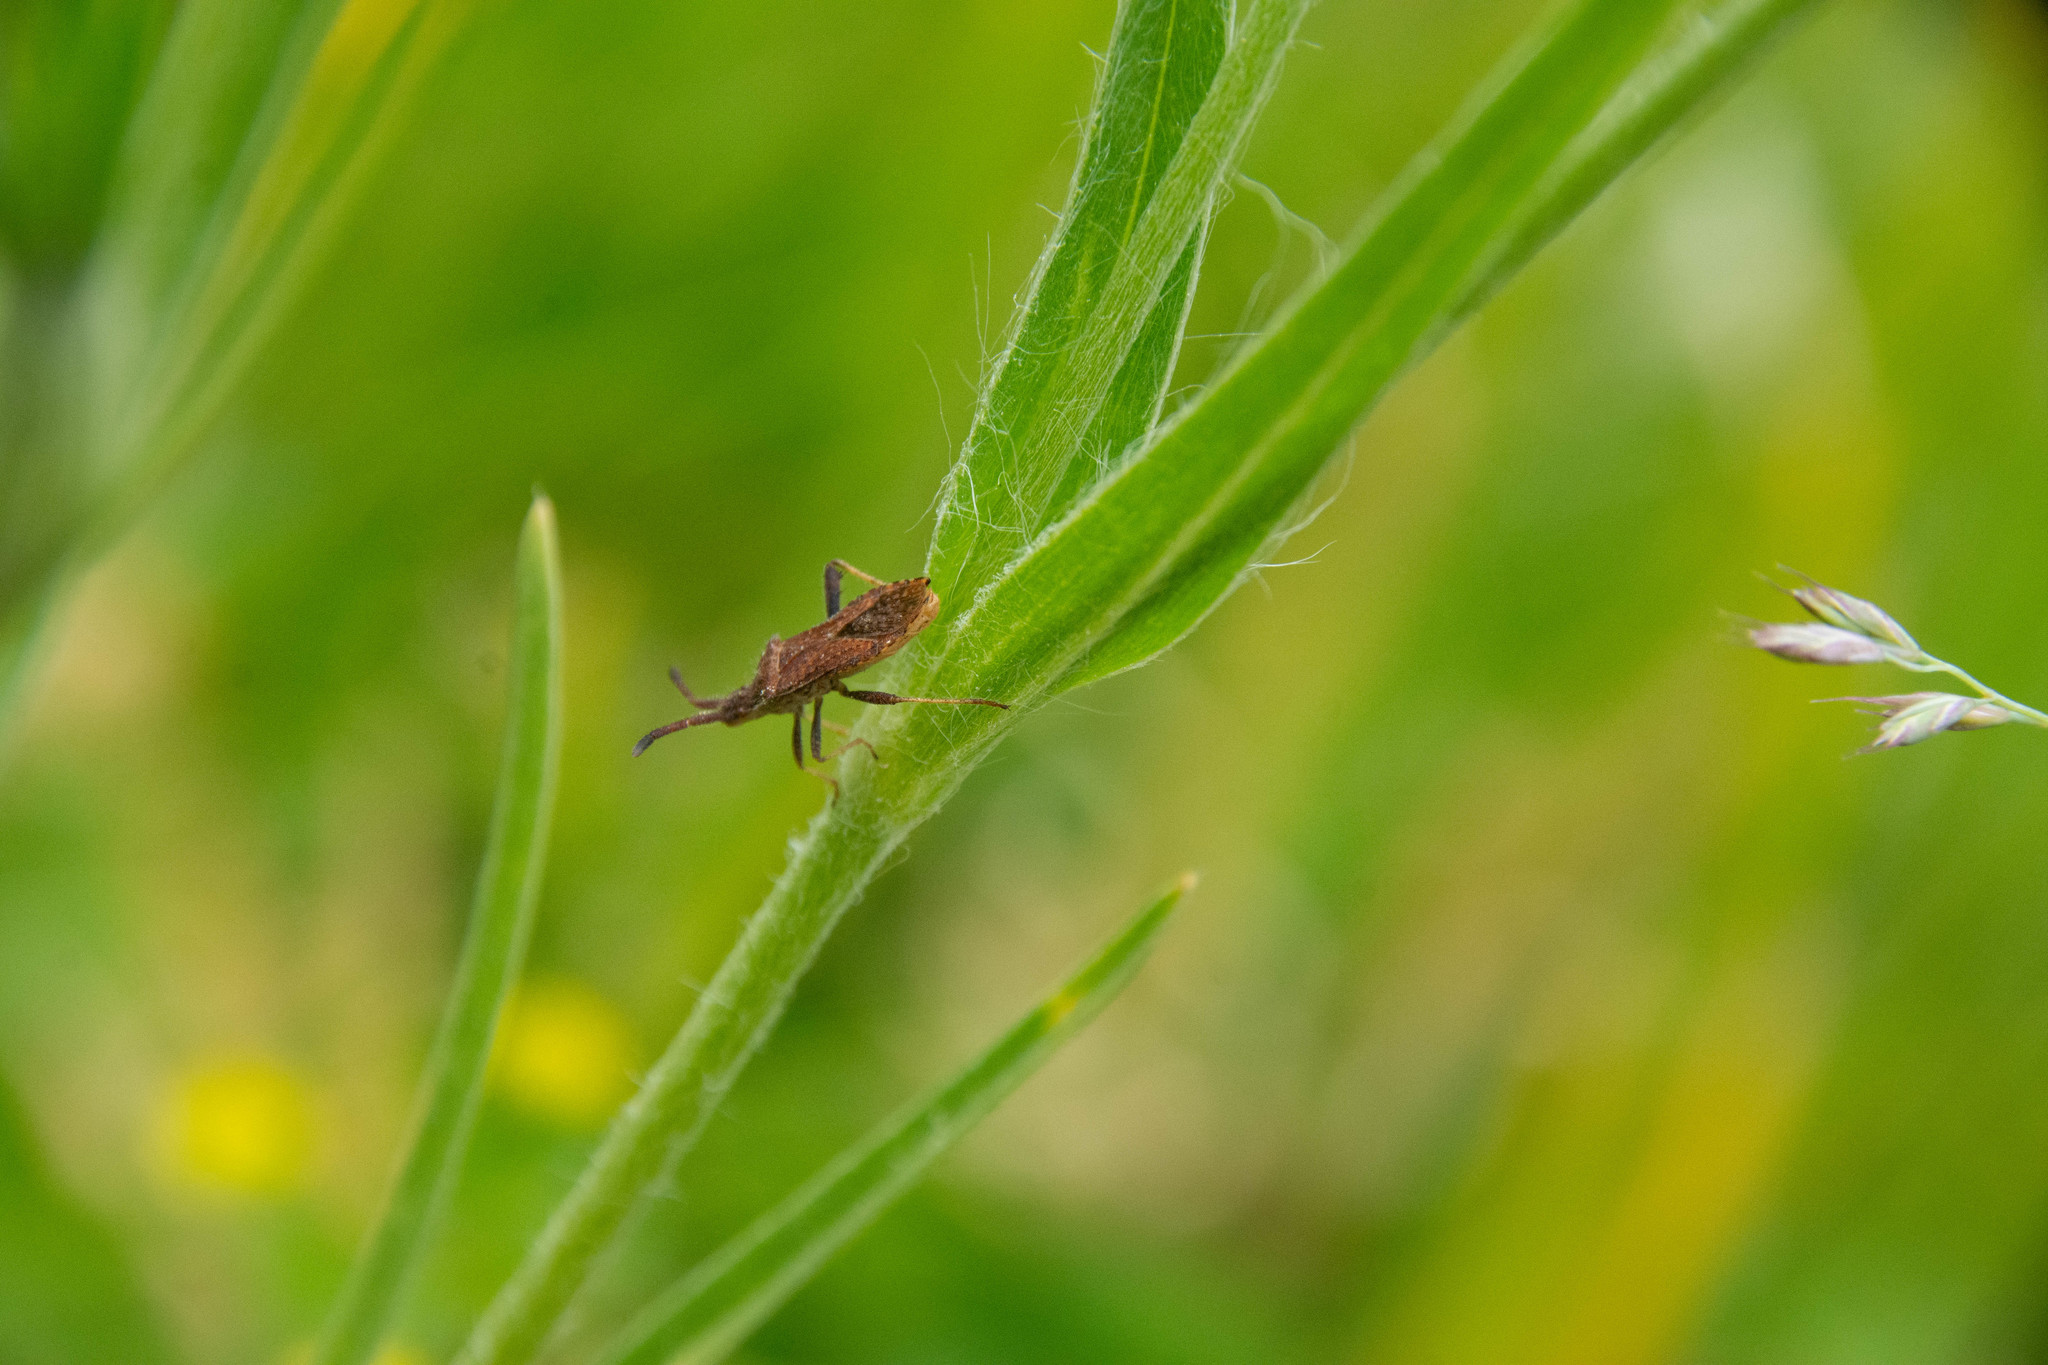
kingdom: Animalia
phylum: Arthropoda
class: Insecta
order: Hemiptera
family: Coreidae
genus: Gonocerus
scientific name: Gonocerus acuteangulatus
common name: Box bug
